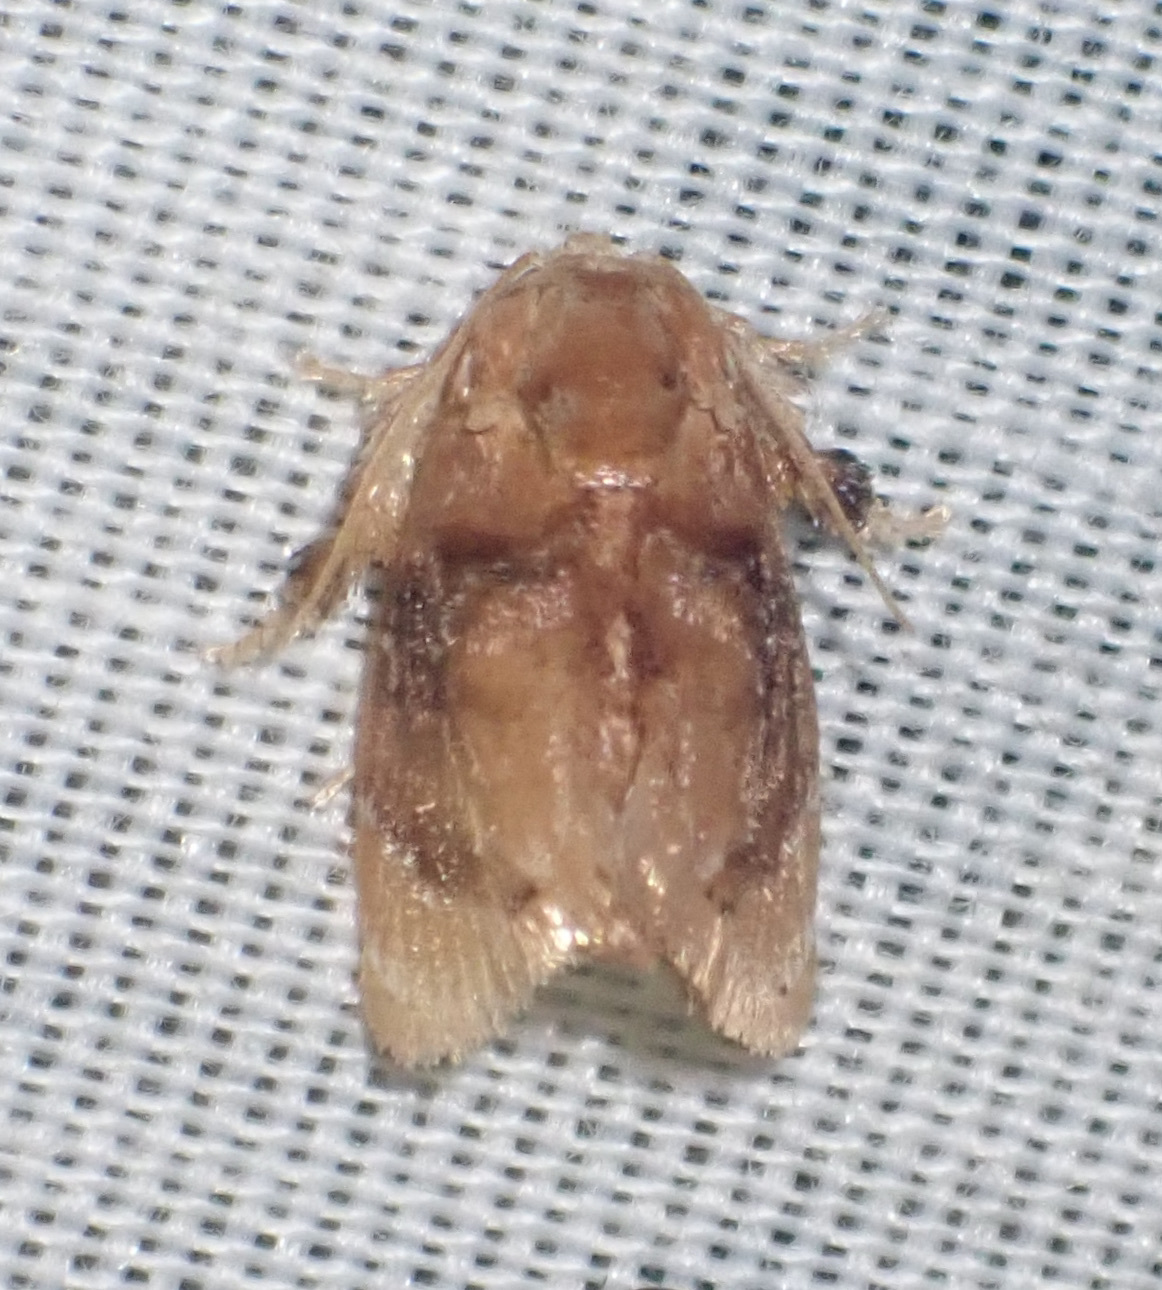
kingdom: Animalia
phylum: Arthropoda
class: Insecta
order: Lepidoptera
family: Limacodidae
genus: Gavara
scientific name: Gavara velutina
